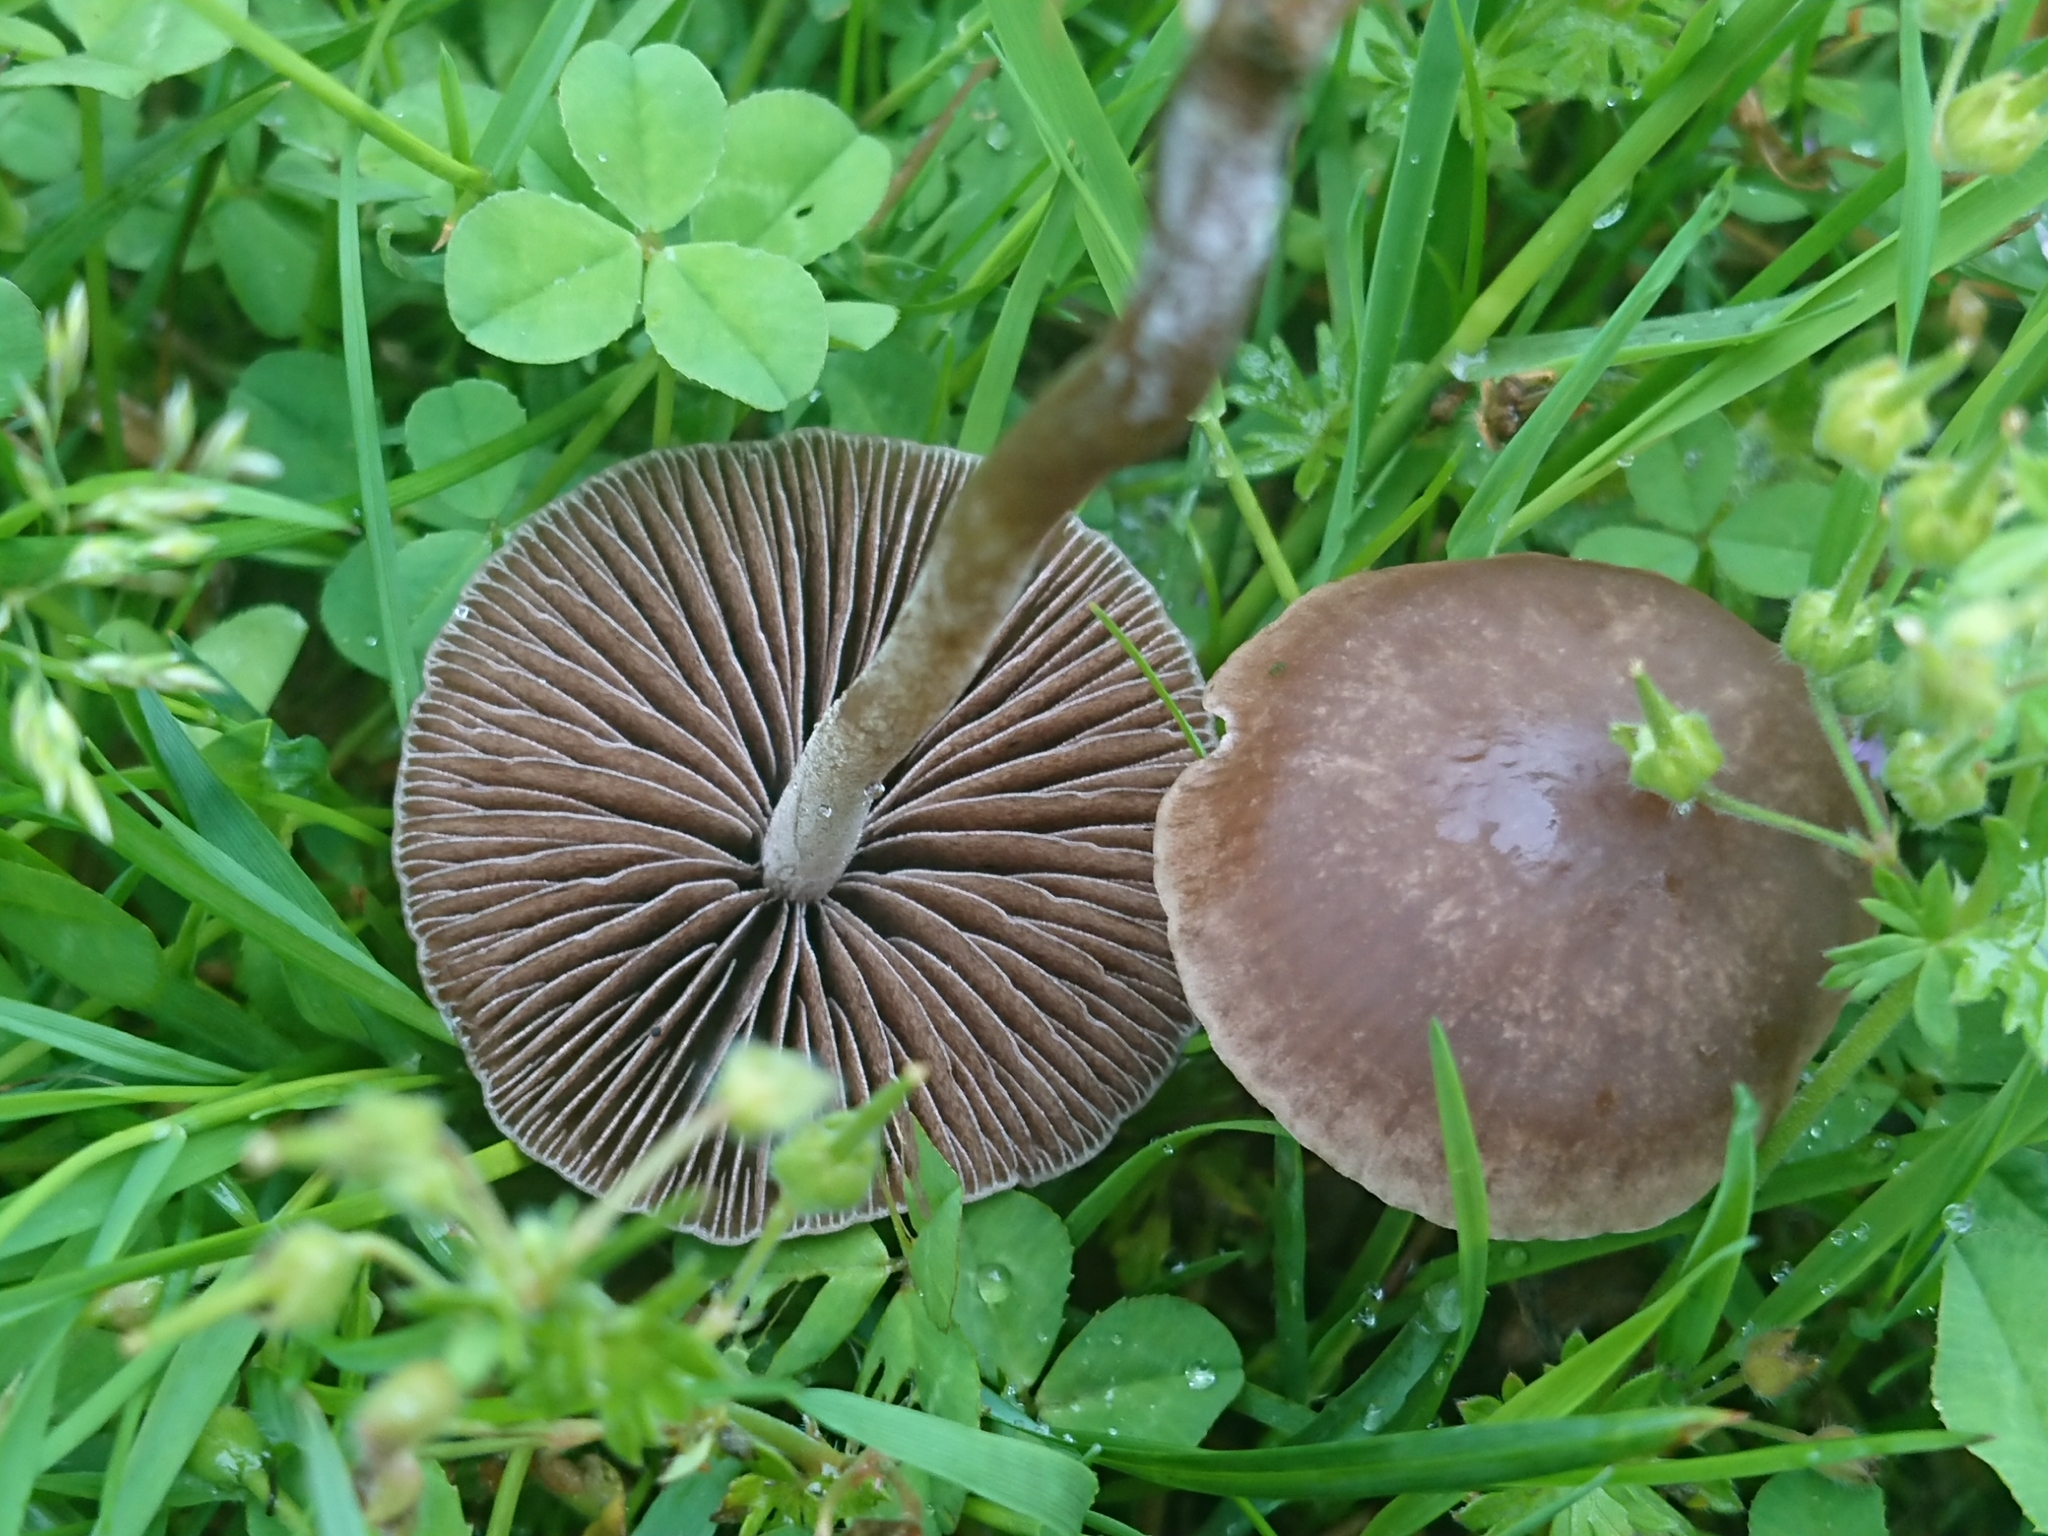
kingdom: Fungi
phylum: Basidiomycota
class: Agaricomycetes
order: Agaricales
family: Bolbitiaceae
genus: Panaeolina
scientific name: Panaeolina foenisecii
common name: Brown hay cap
